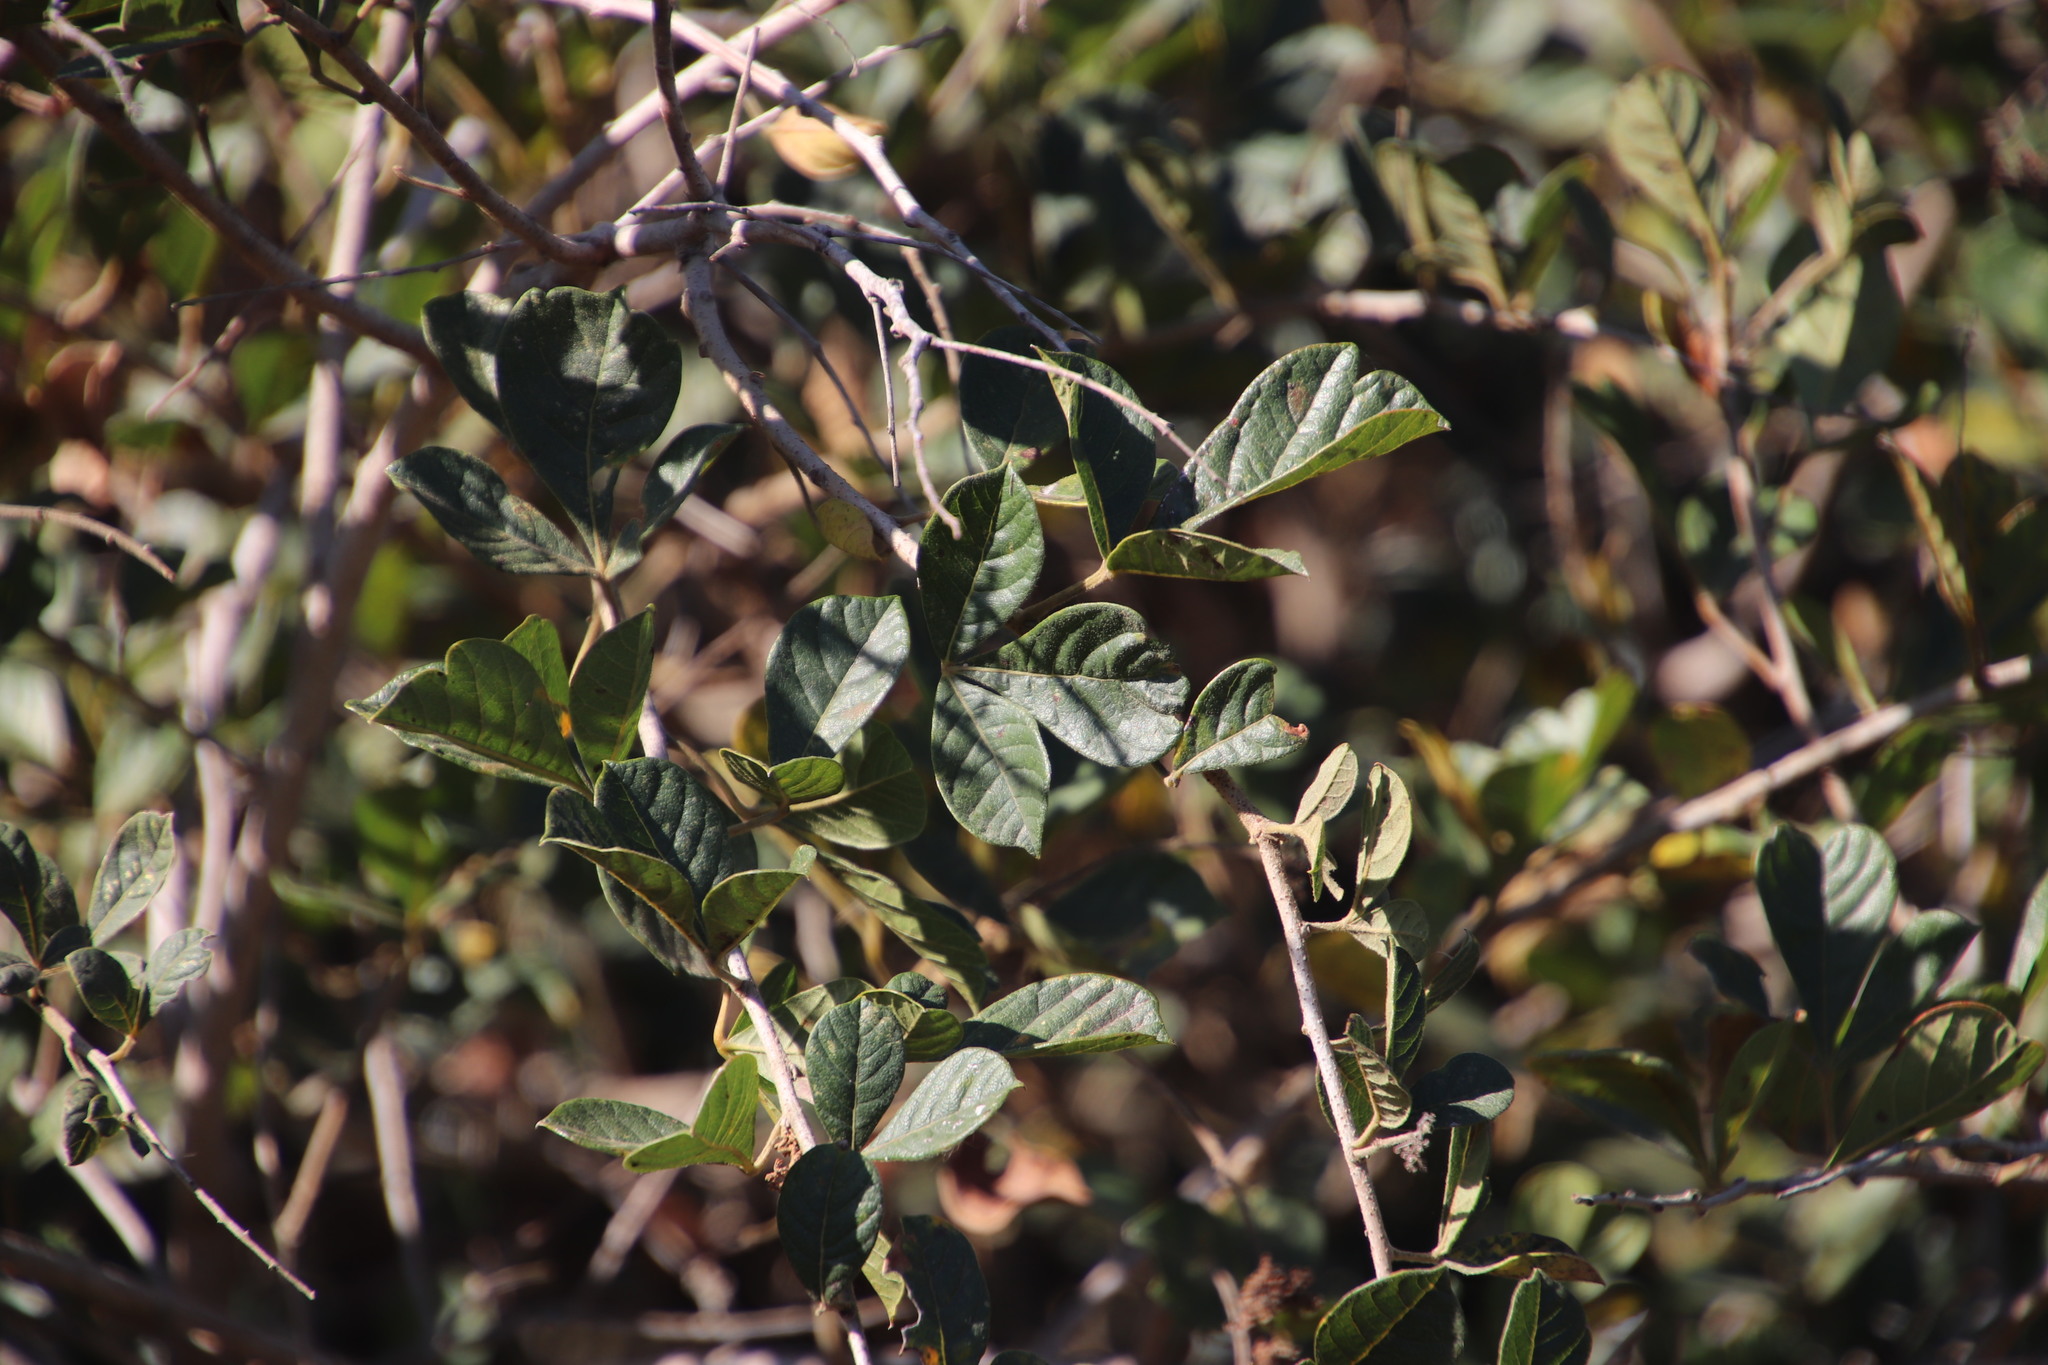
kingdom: Plantae
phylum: Tracheophyta
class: Magnoliopsida
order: Sapindales
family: Anacardiaceae
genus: Searsia
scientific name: Searsia laevigata
